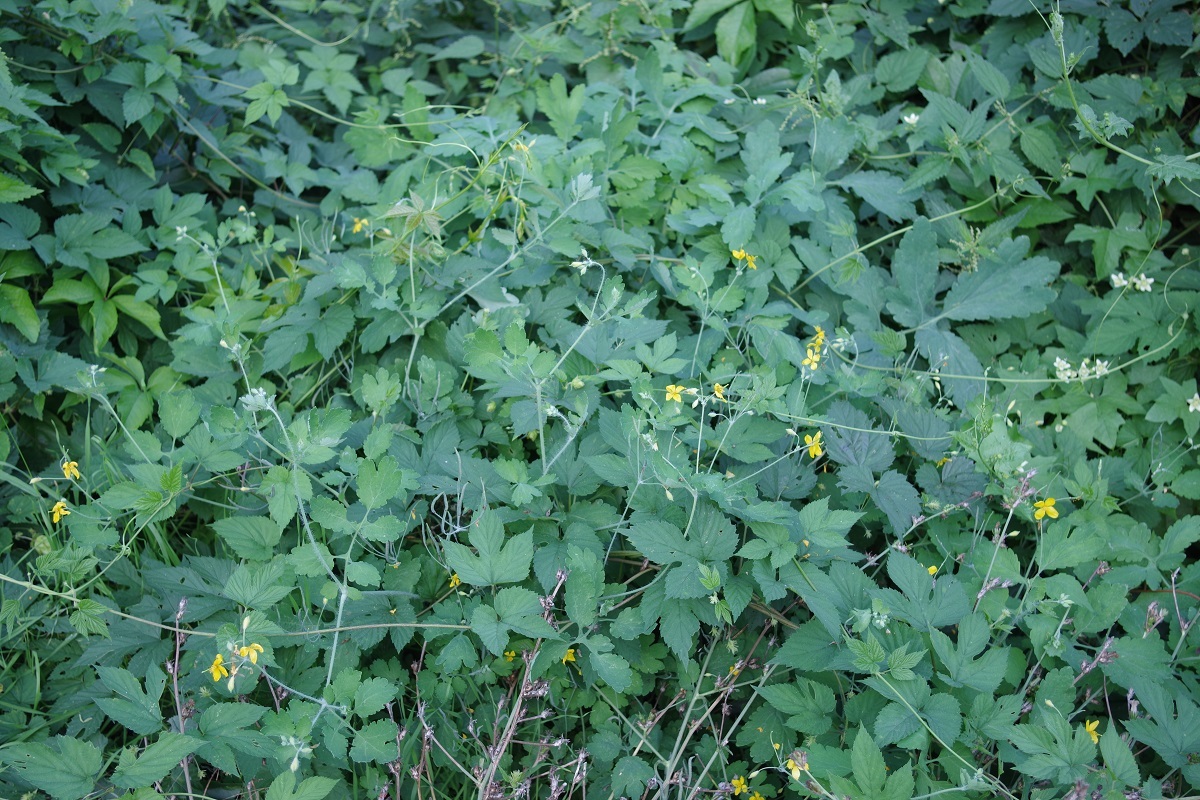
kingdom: Plantae
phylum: Tracheophyta
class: Magnoliopsida
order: Ranunculales
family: Papaveraceae
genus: Chelidonium
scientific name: Chelidonium majus
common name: Greater celandine
